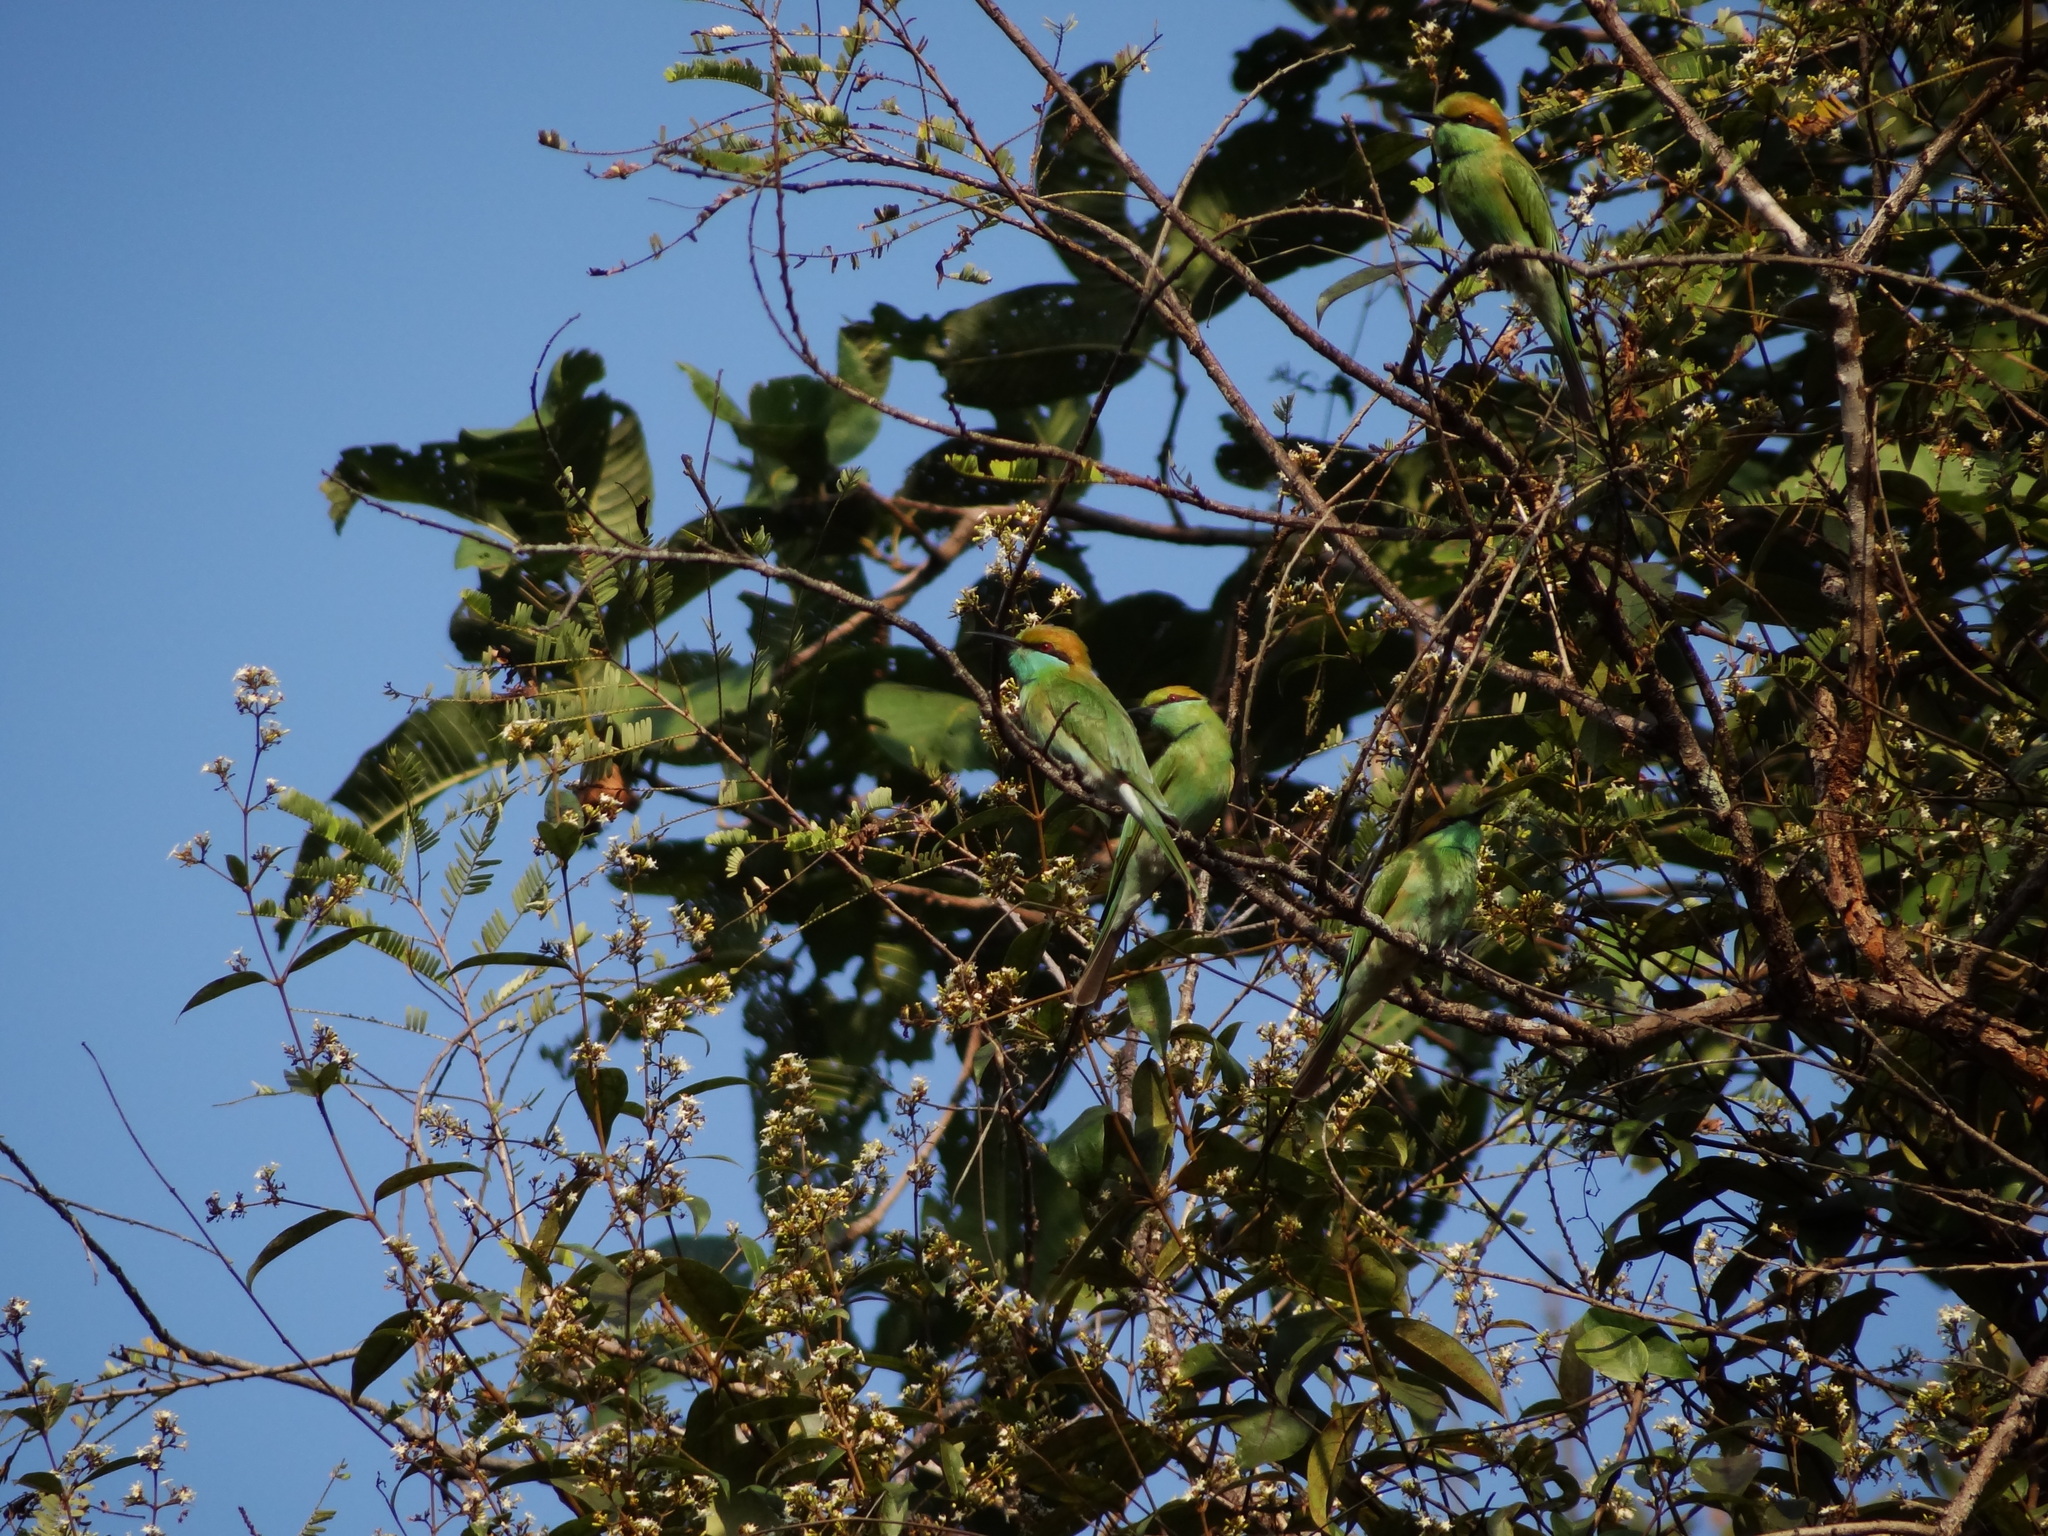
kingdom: Animalia
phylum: Chordata
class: Aves
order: Coraciiformes
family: Meropidae
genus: Merops
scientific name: Merops orientalis
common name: Green bee-eater
